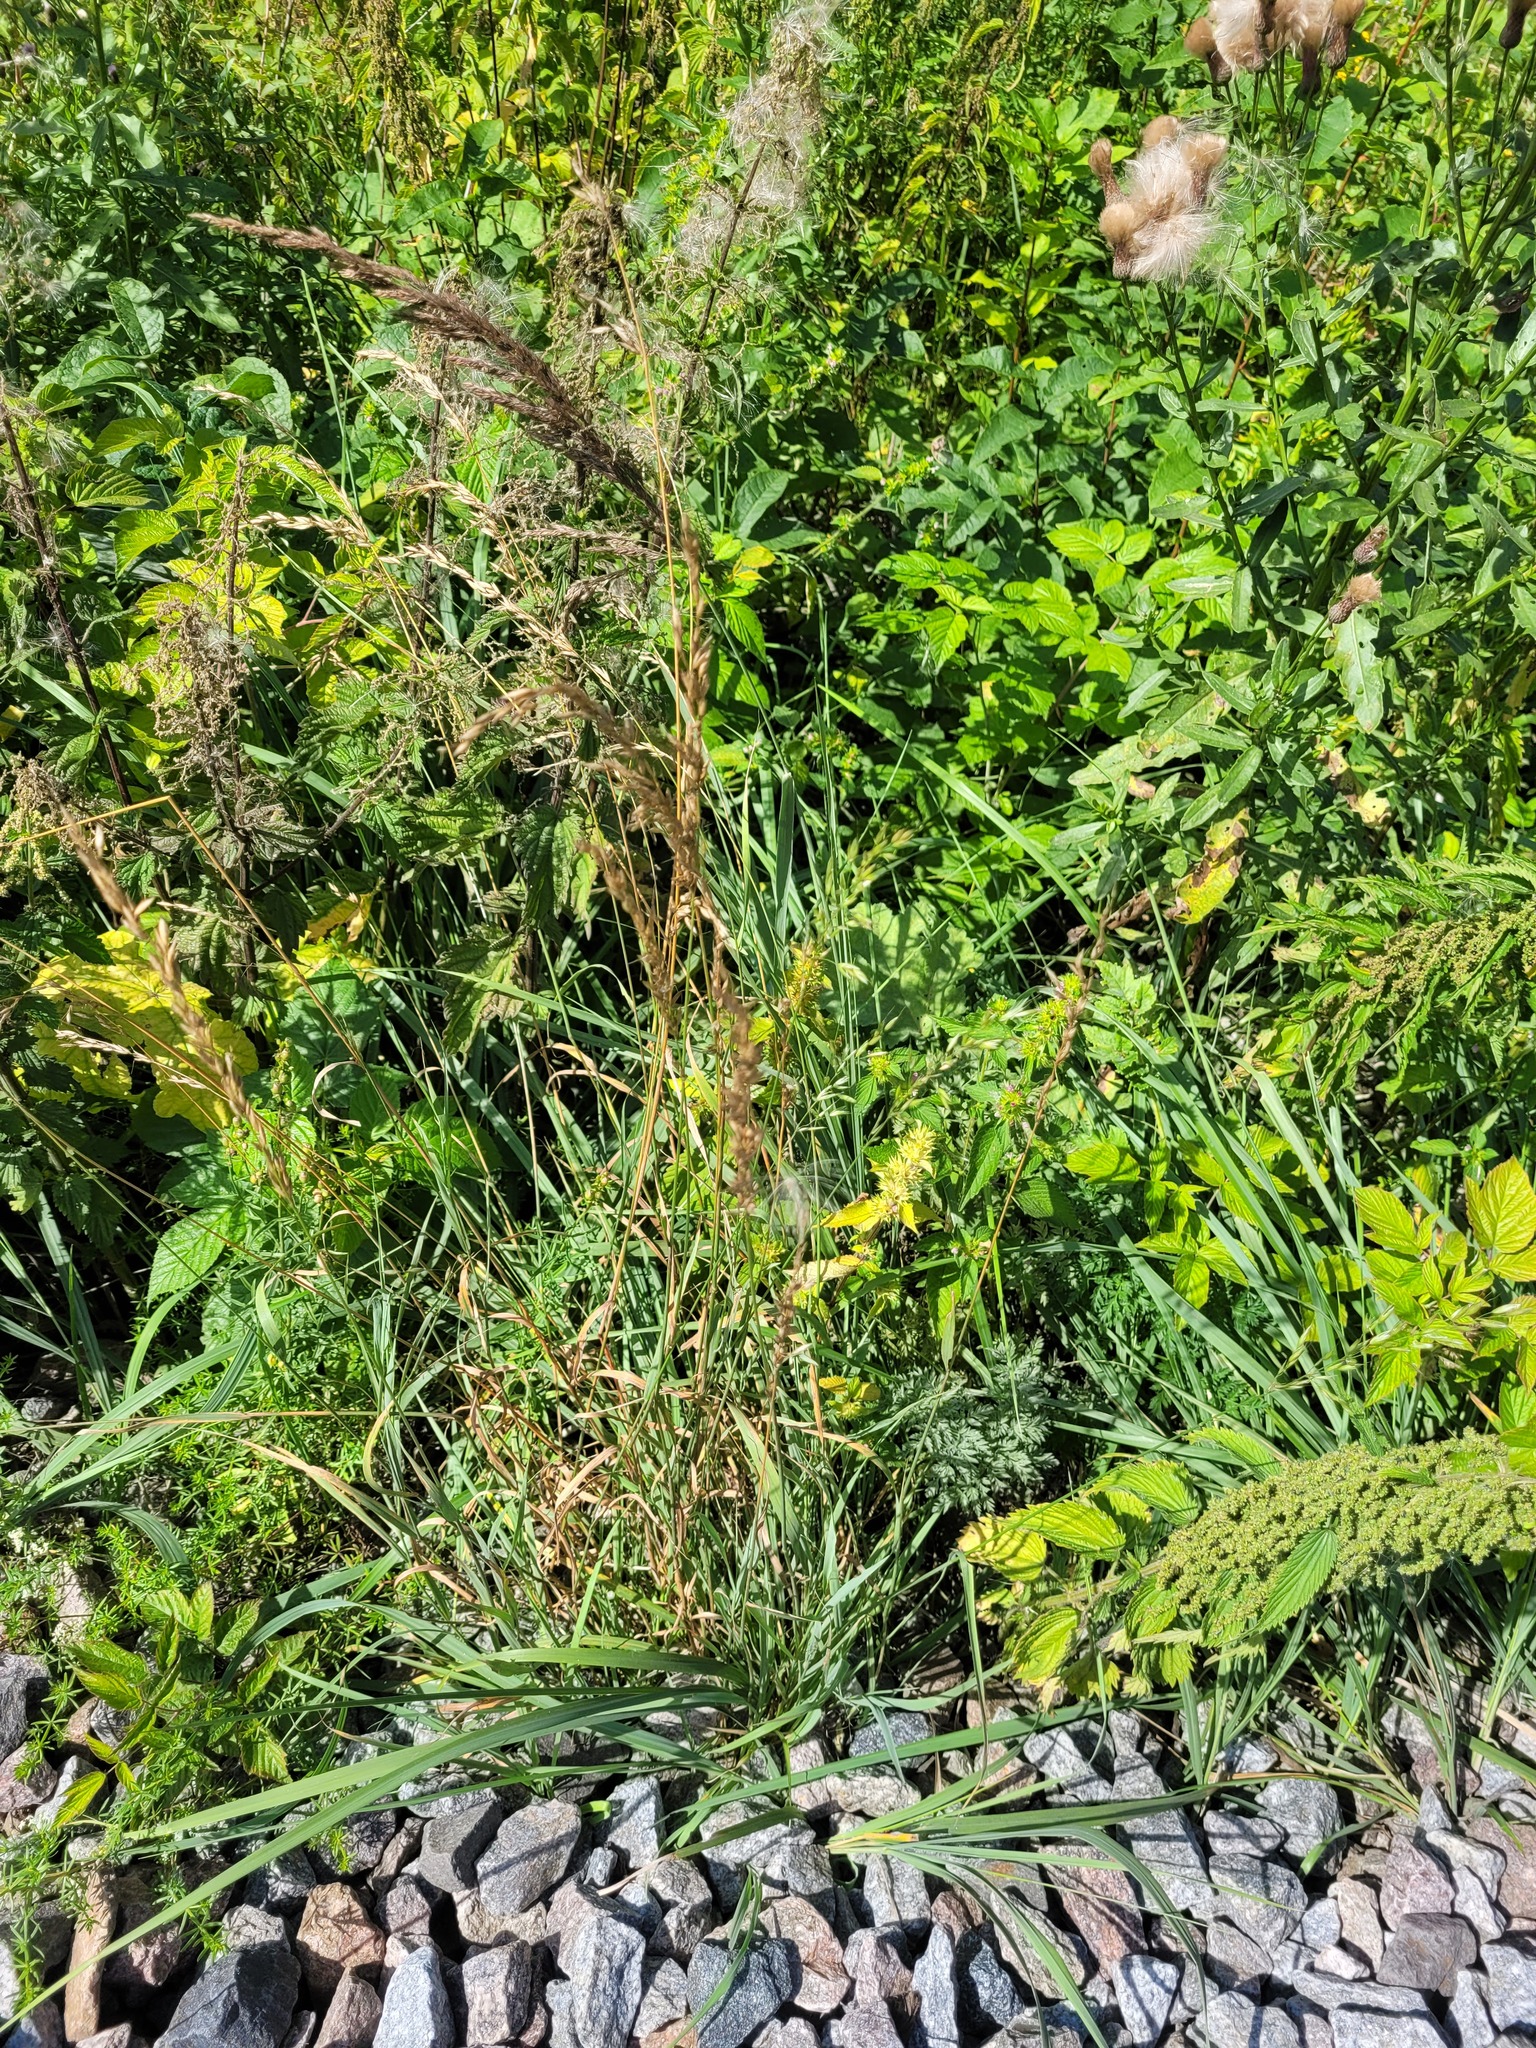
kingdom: Plantae
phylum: Tracheophyta
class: Liliopsida
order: Poales
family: Poaceae
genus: Arrhenatherum
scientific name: Arrhenatherum elatius
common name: Tall oatgrass
